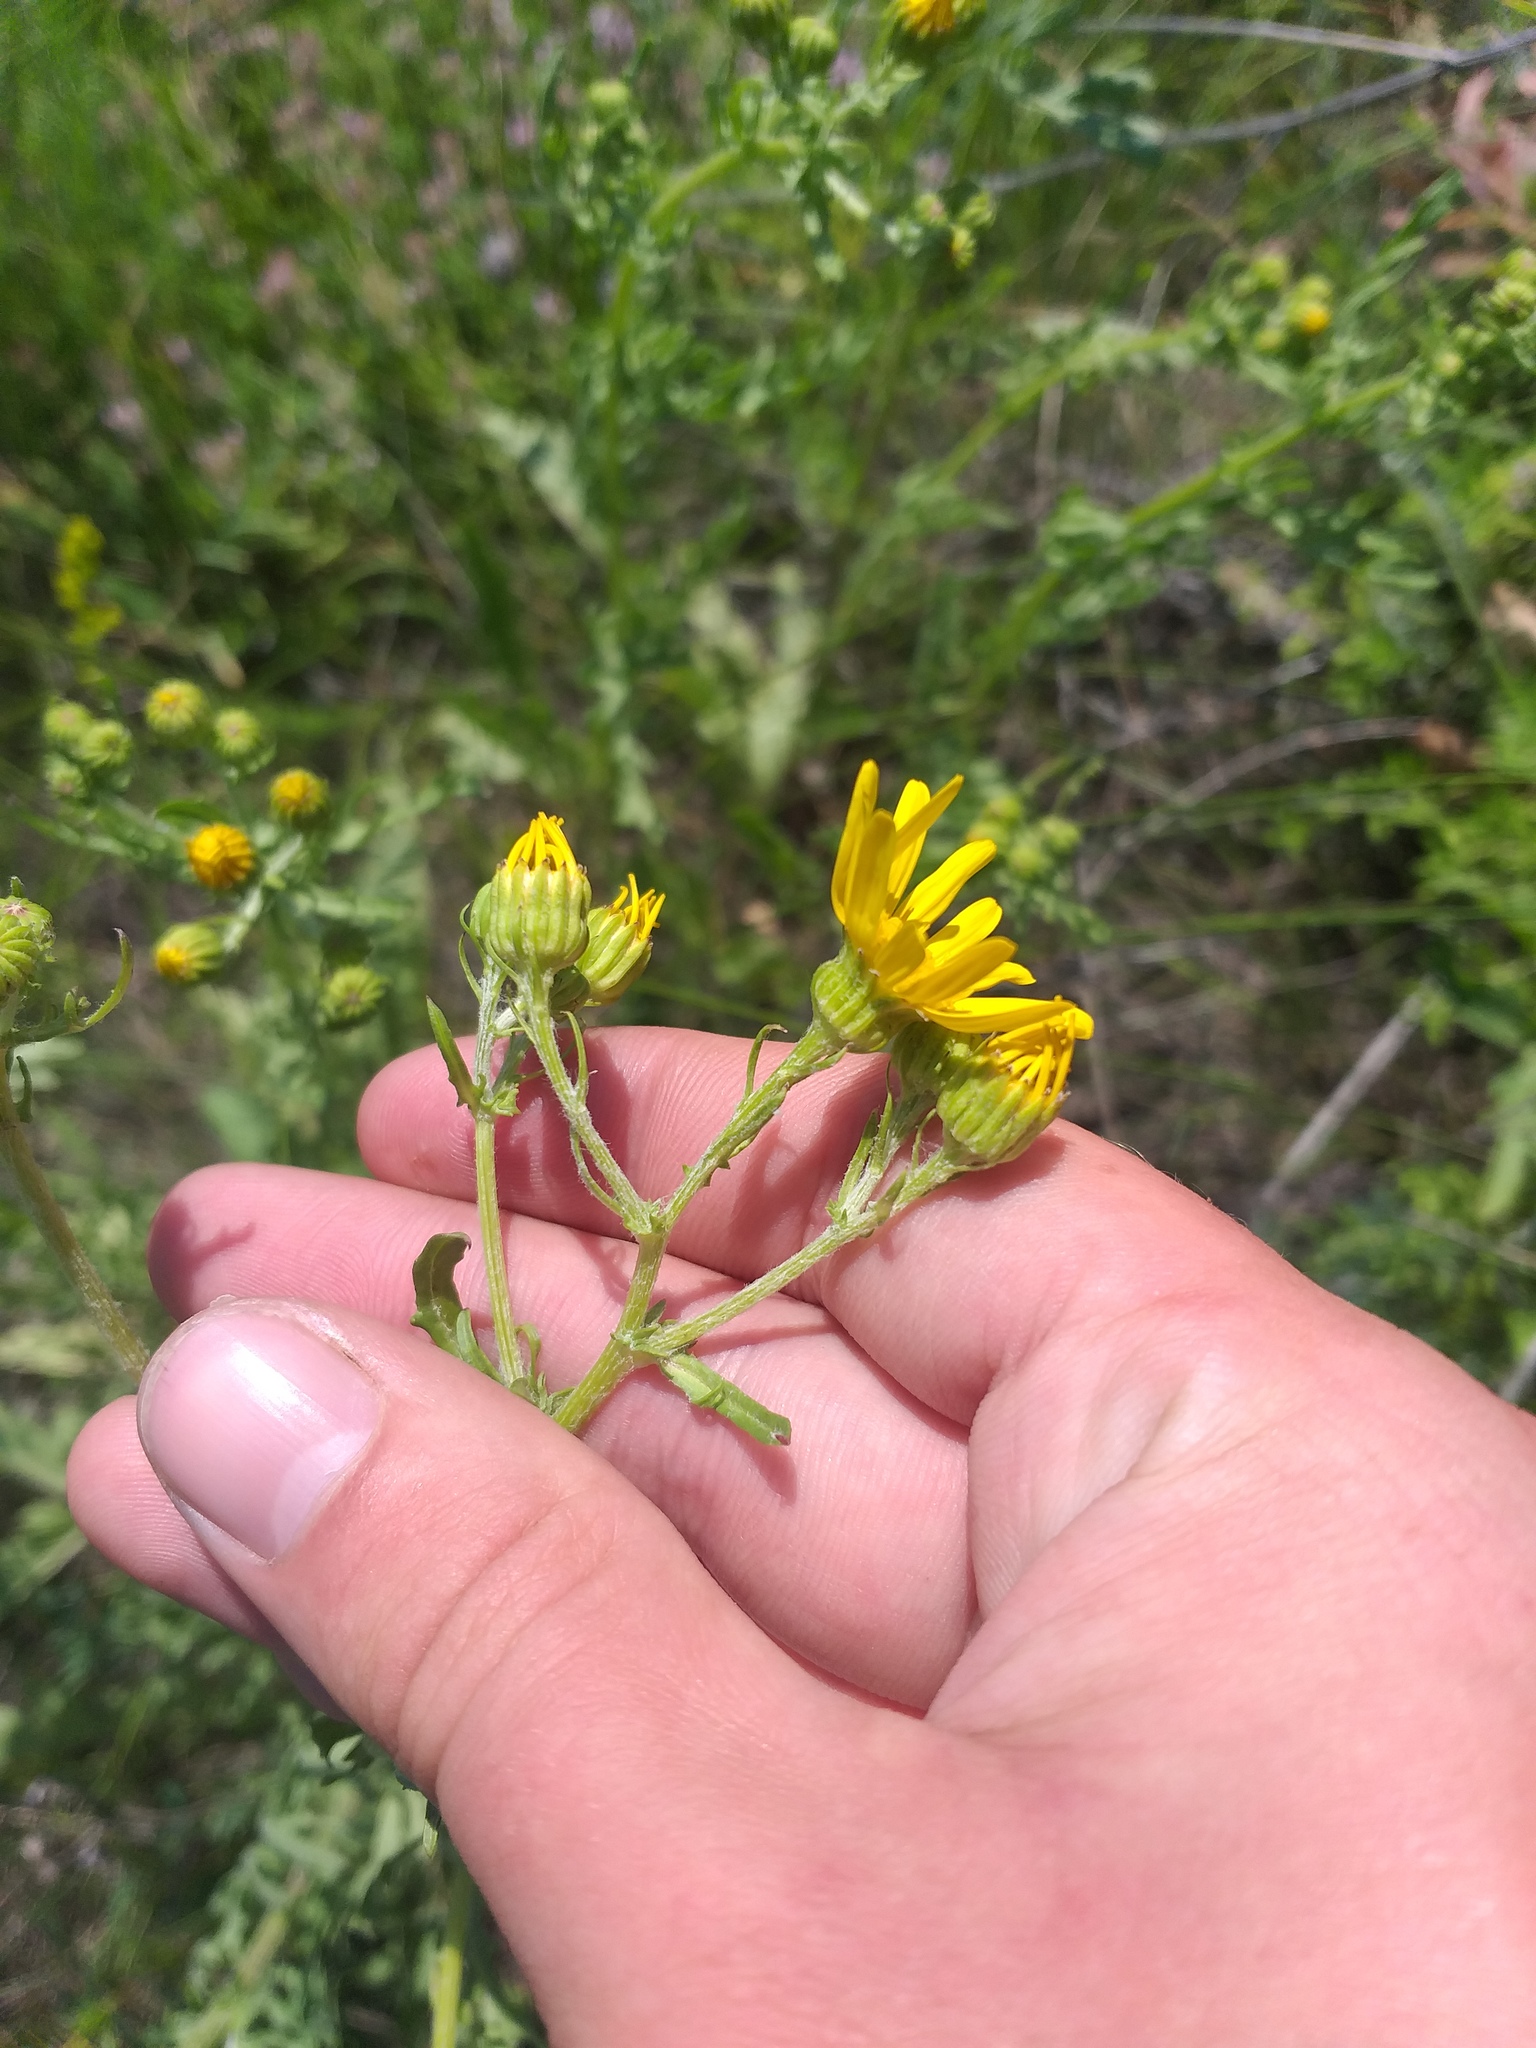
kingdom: Plantae
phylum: Tracheophyta
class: Magnoliopsida
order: Asterales
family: Asteraceae
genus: Jacobaea
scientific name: Jacobaea andrzejowskyi
